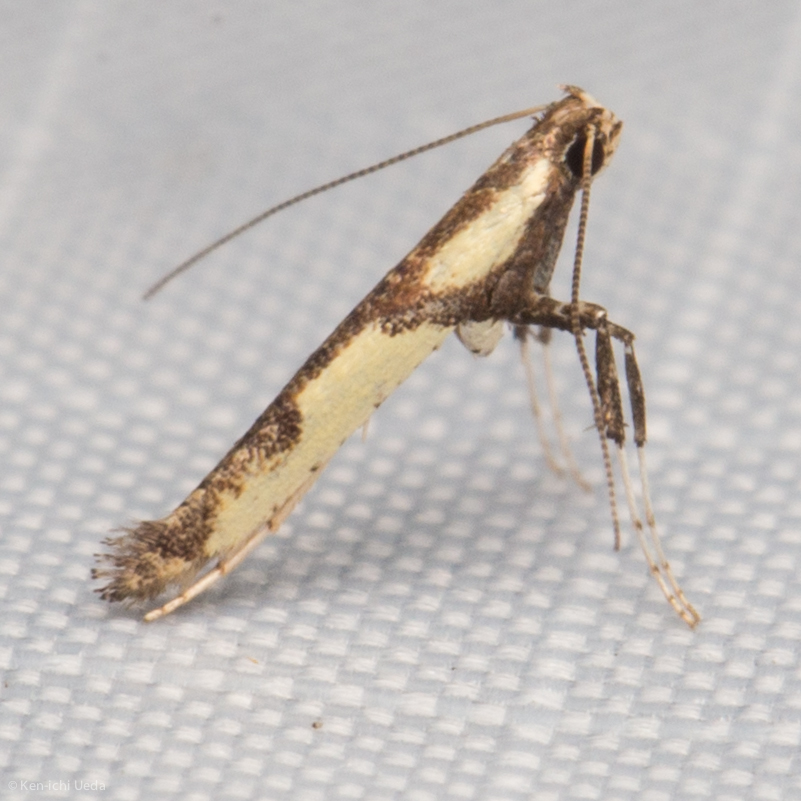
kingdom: Animalia
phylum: Arthropoda
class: Insecta
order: Lepidoptera
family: Gracillariidae
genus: Caloptilia
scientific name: Caloptilia blandella
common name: Walnut caloptilia moth
